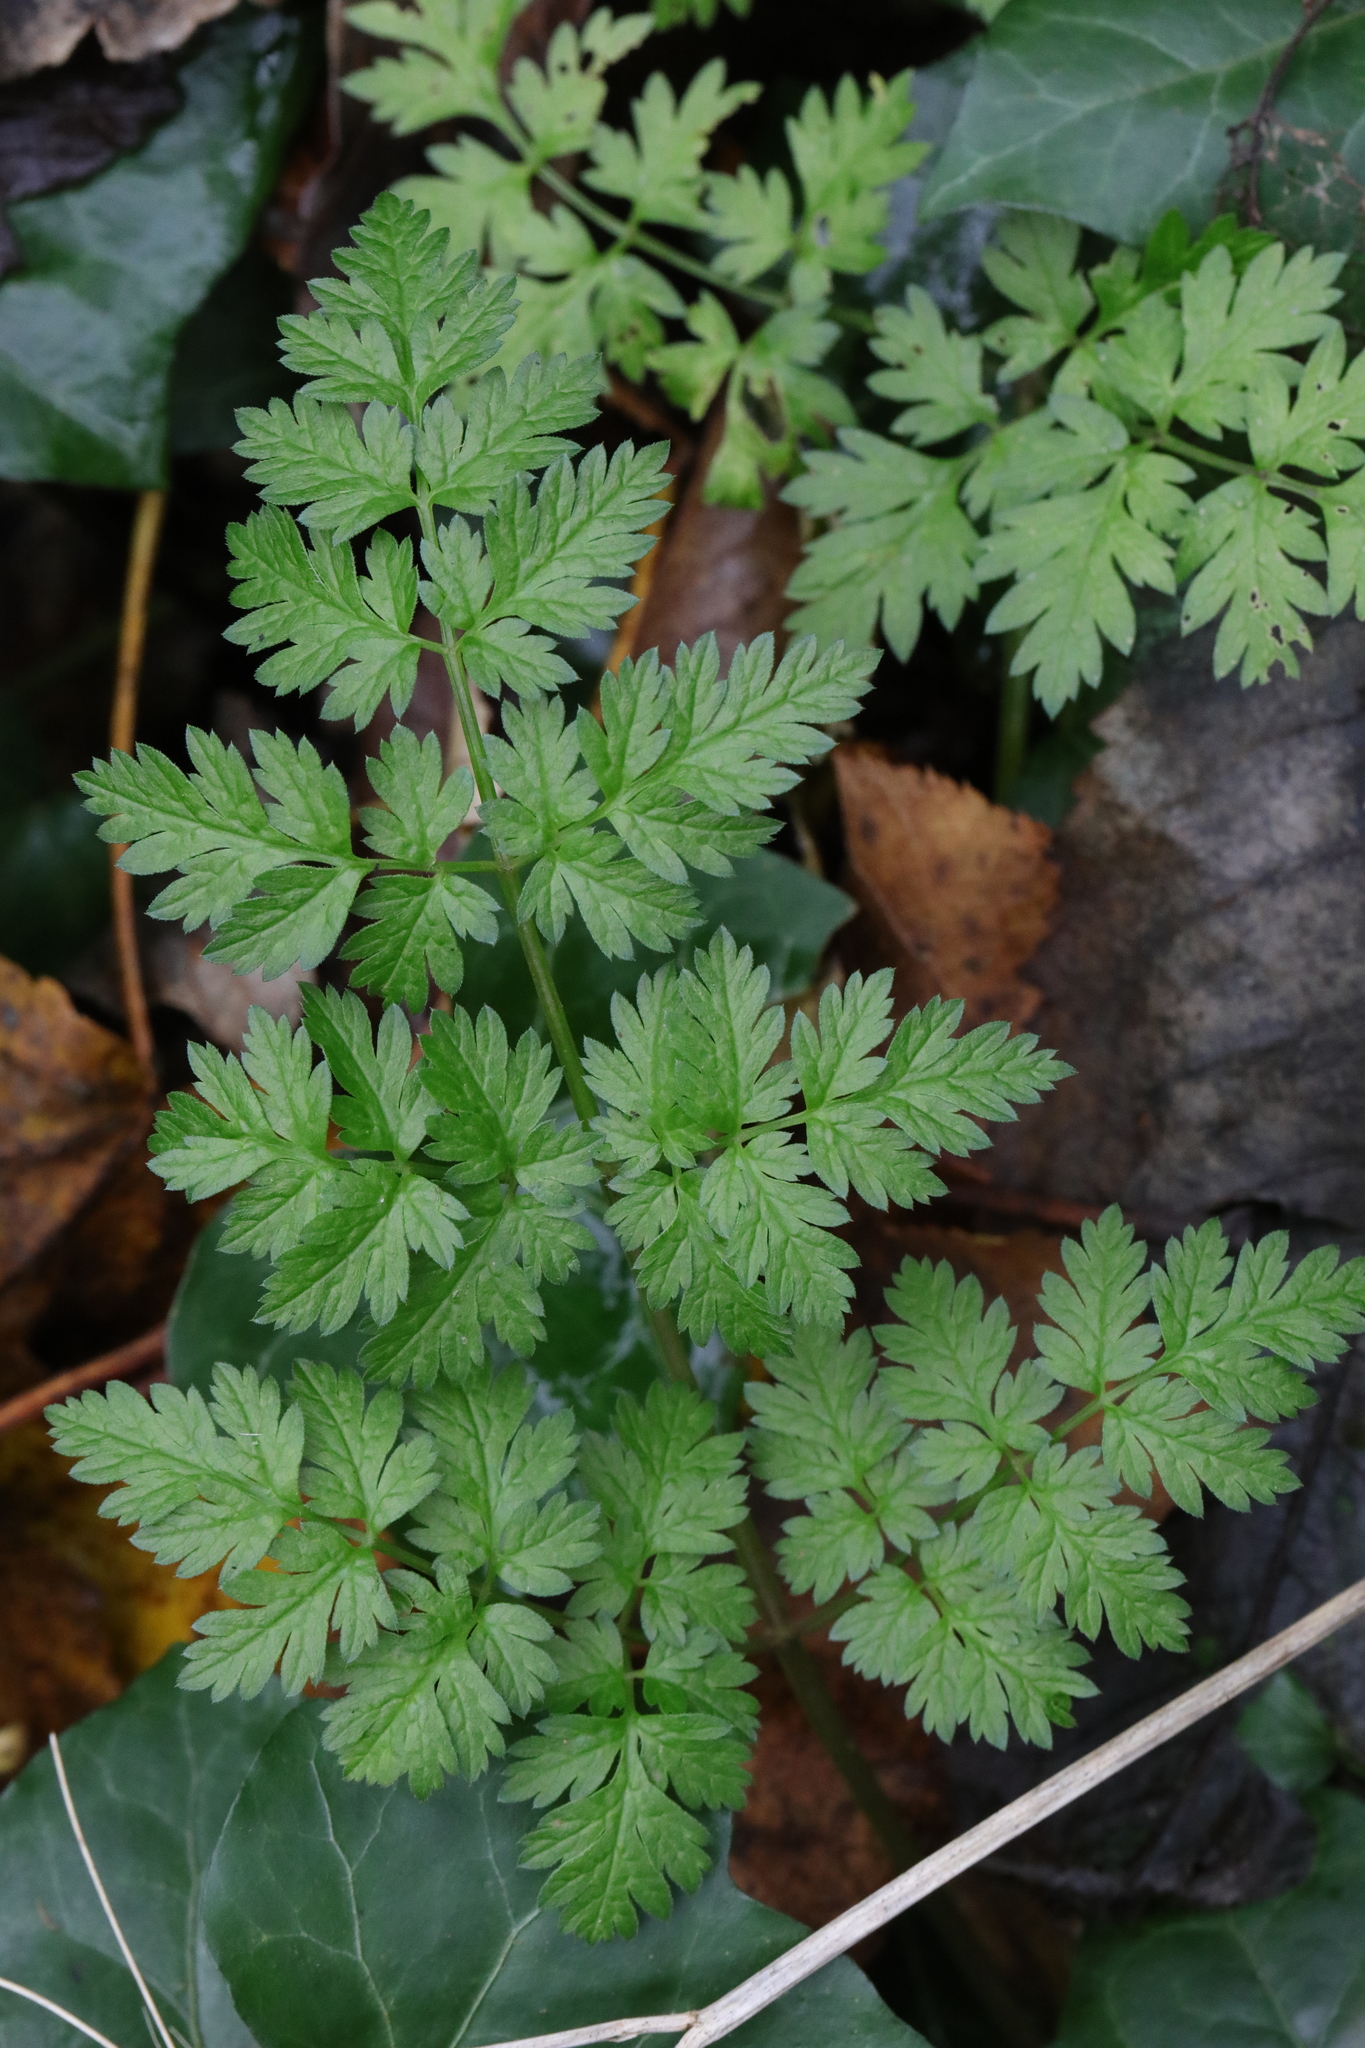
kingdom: Plantae
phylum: Tracheophyta
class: Magnoliopsida
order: Apiales
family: Apiaceae
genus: Anthriscus
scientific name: Anthriscus sylvestris
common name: Cow parsley
